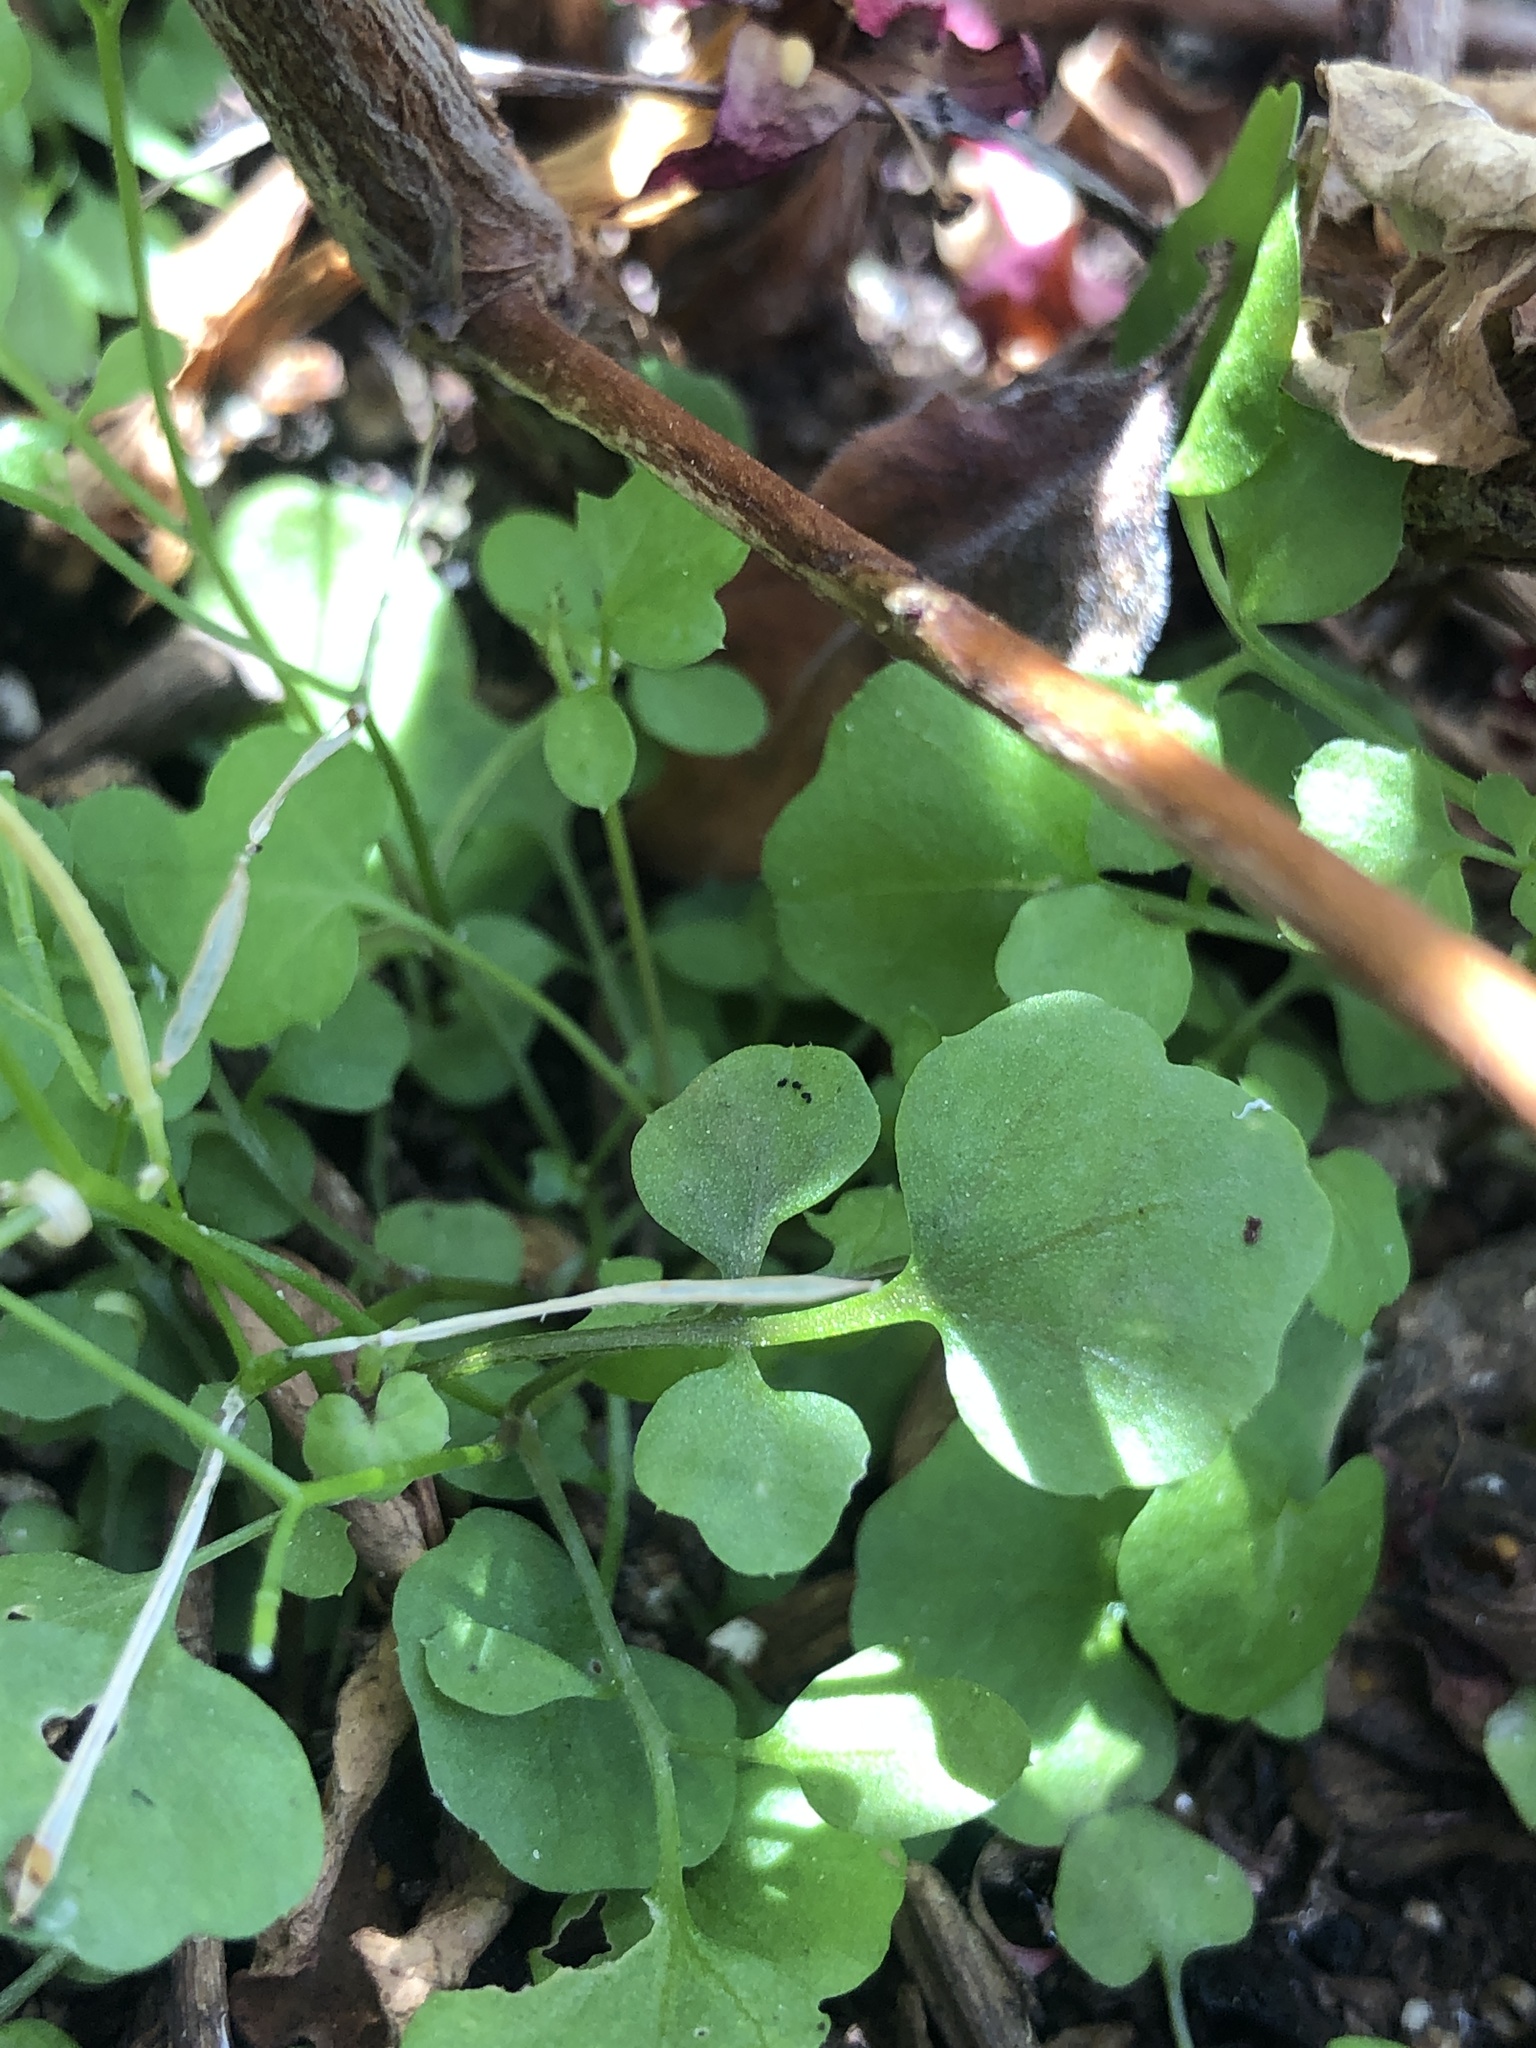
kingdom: Plantae
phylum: Tracheophyta
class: Magnoliopsida
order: Brassicales
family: Brassicaceae
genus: Cardamine
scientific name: Cardamine occulta
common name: Asian wavy bittercress
